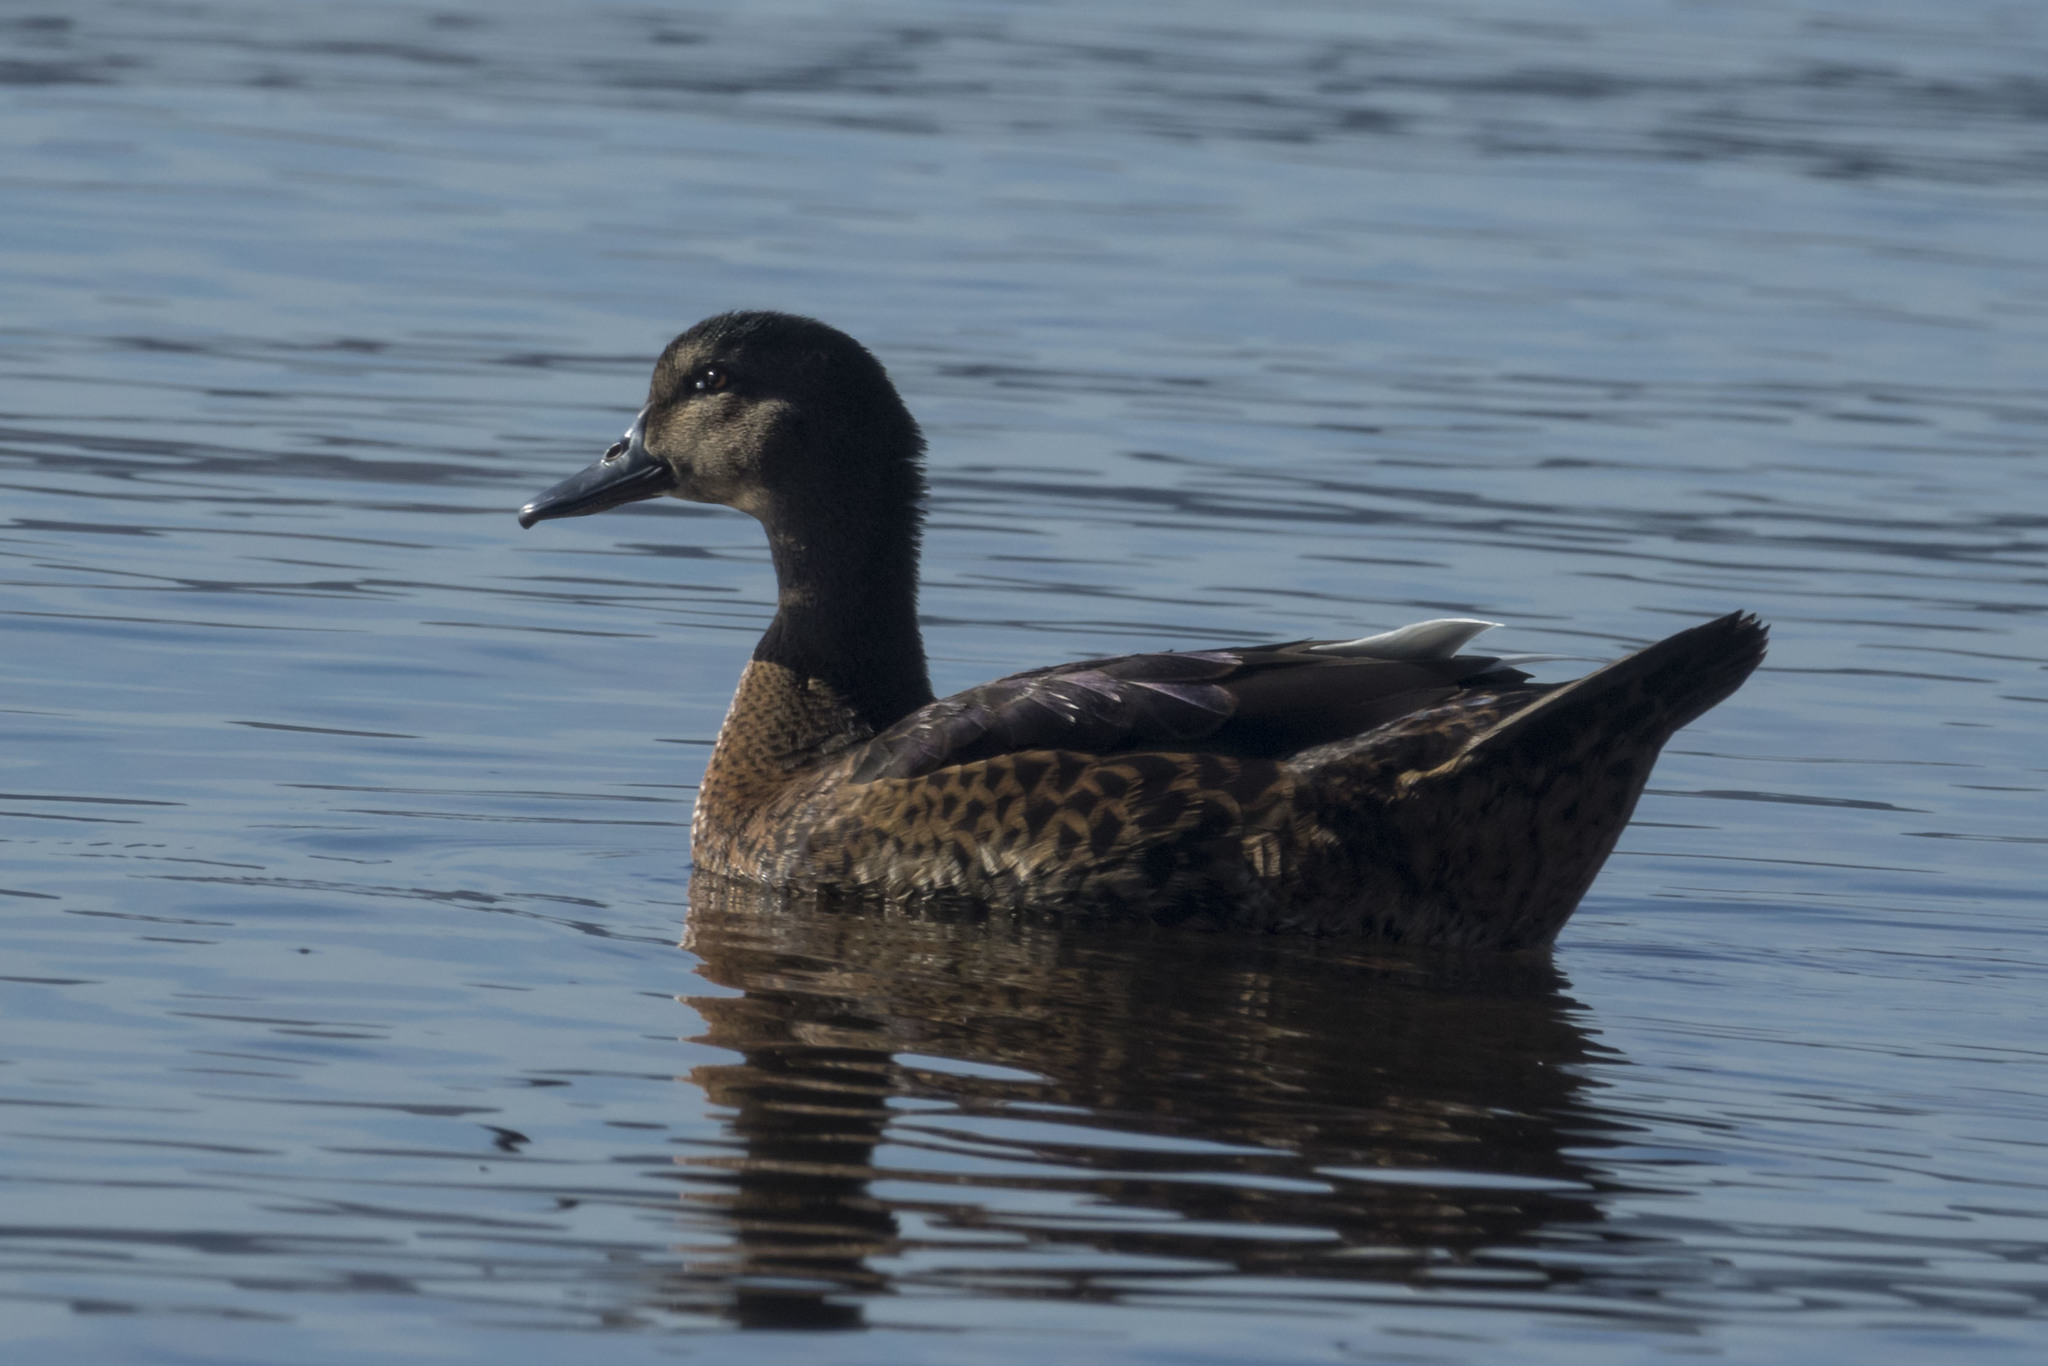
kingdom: Animalia
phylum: Chordata
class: Aves
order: Anseriformes
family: Anatidae
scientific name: Anatidae
